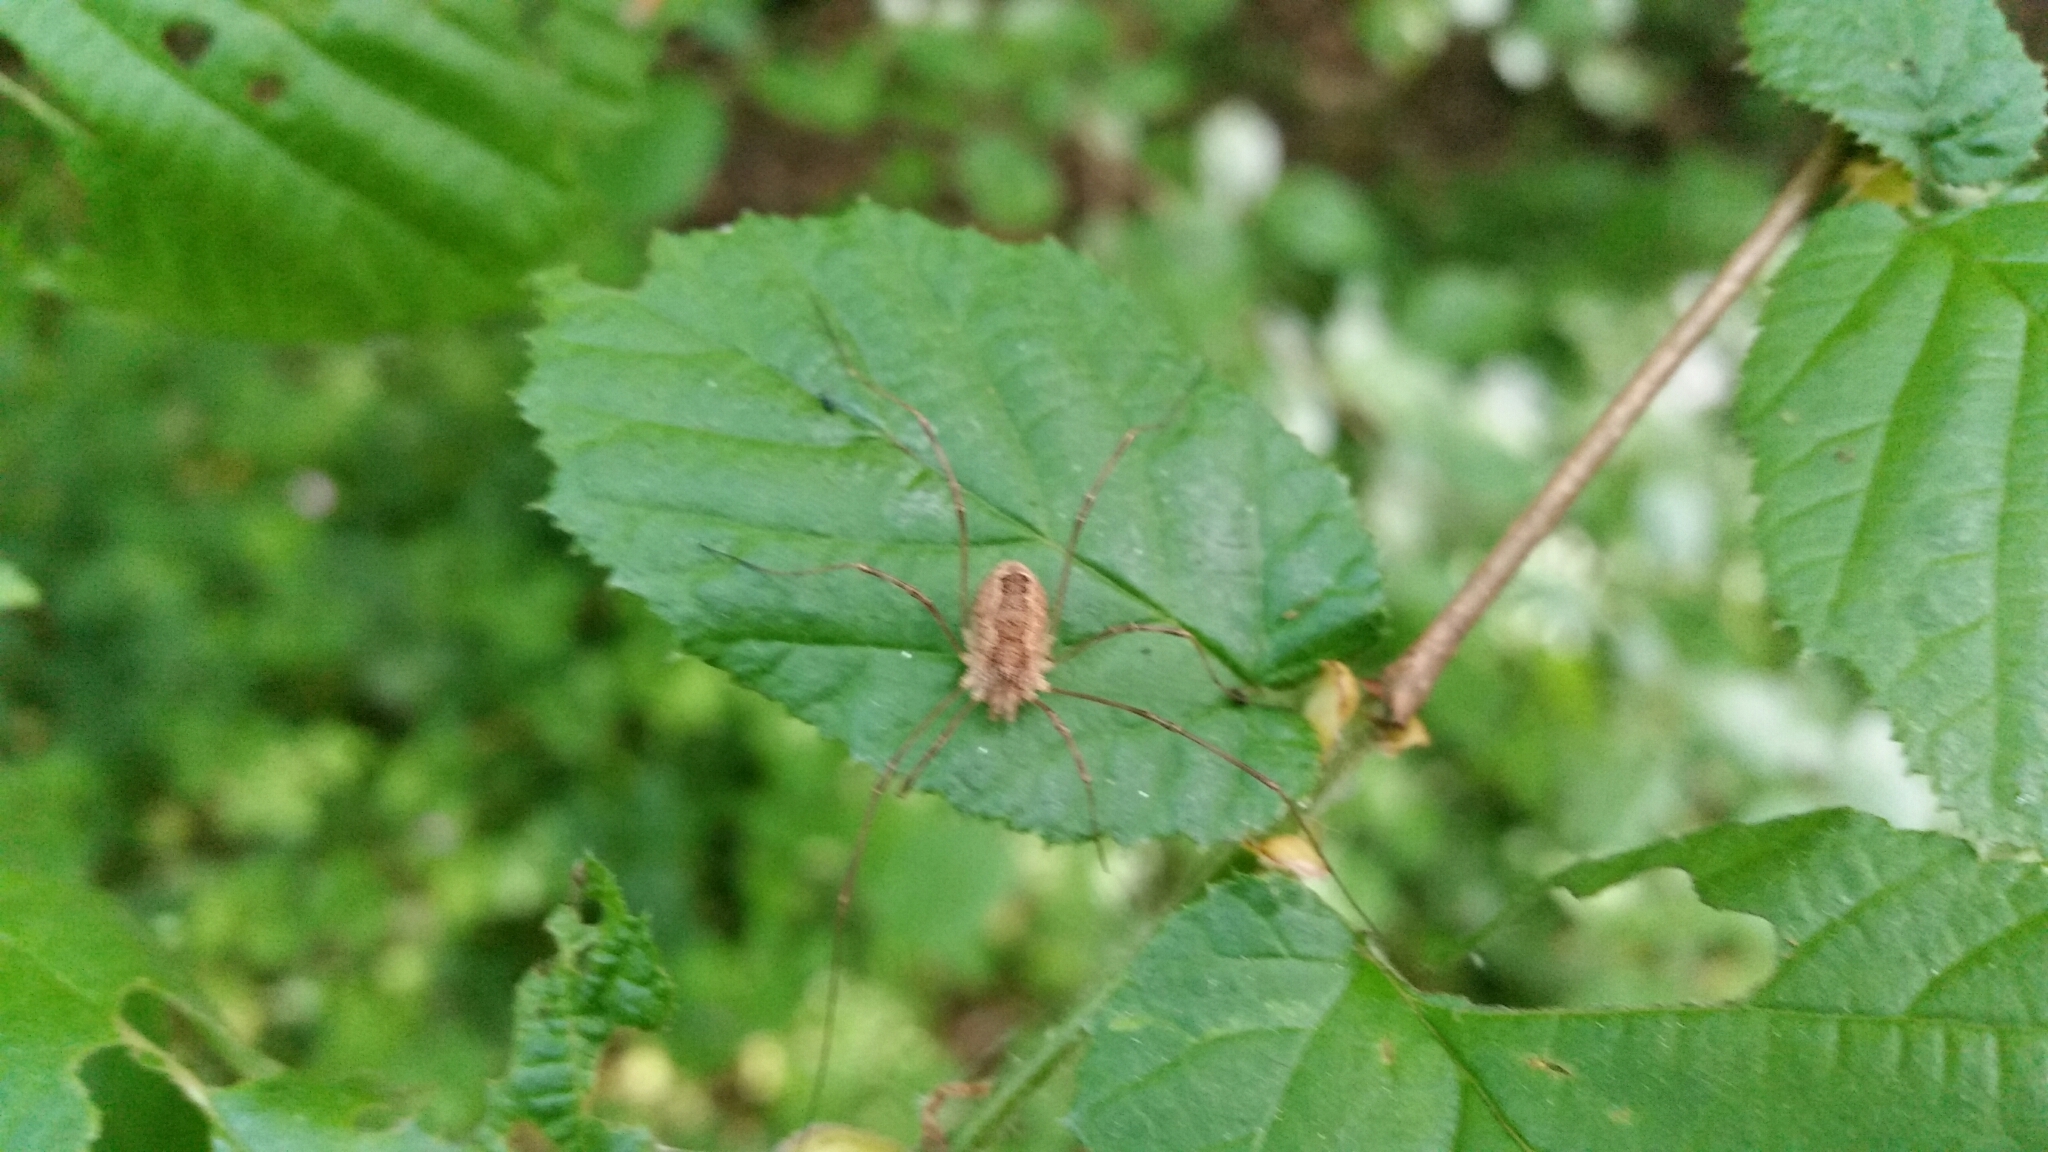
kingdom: Animalia
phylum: Arthropoda
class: Arachnida
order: Opiliones
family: Phalangiidae
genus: Rilaena
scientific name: Rilaena triangularis
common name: Spring harvestman
